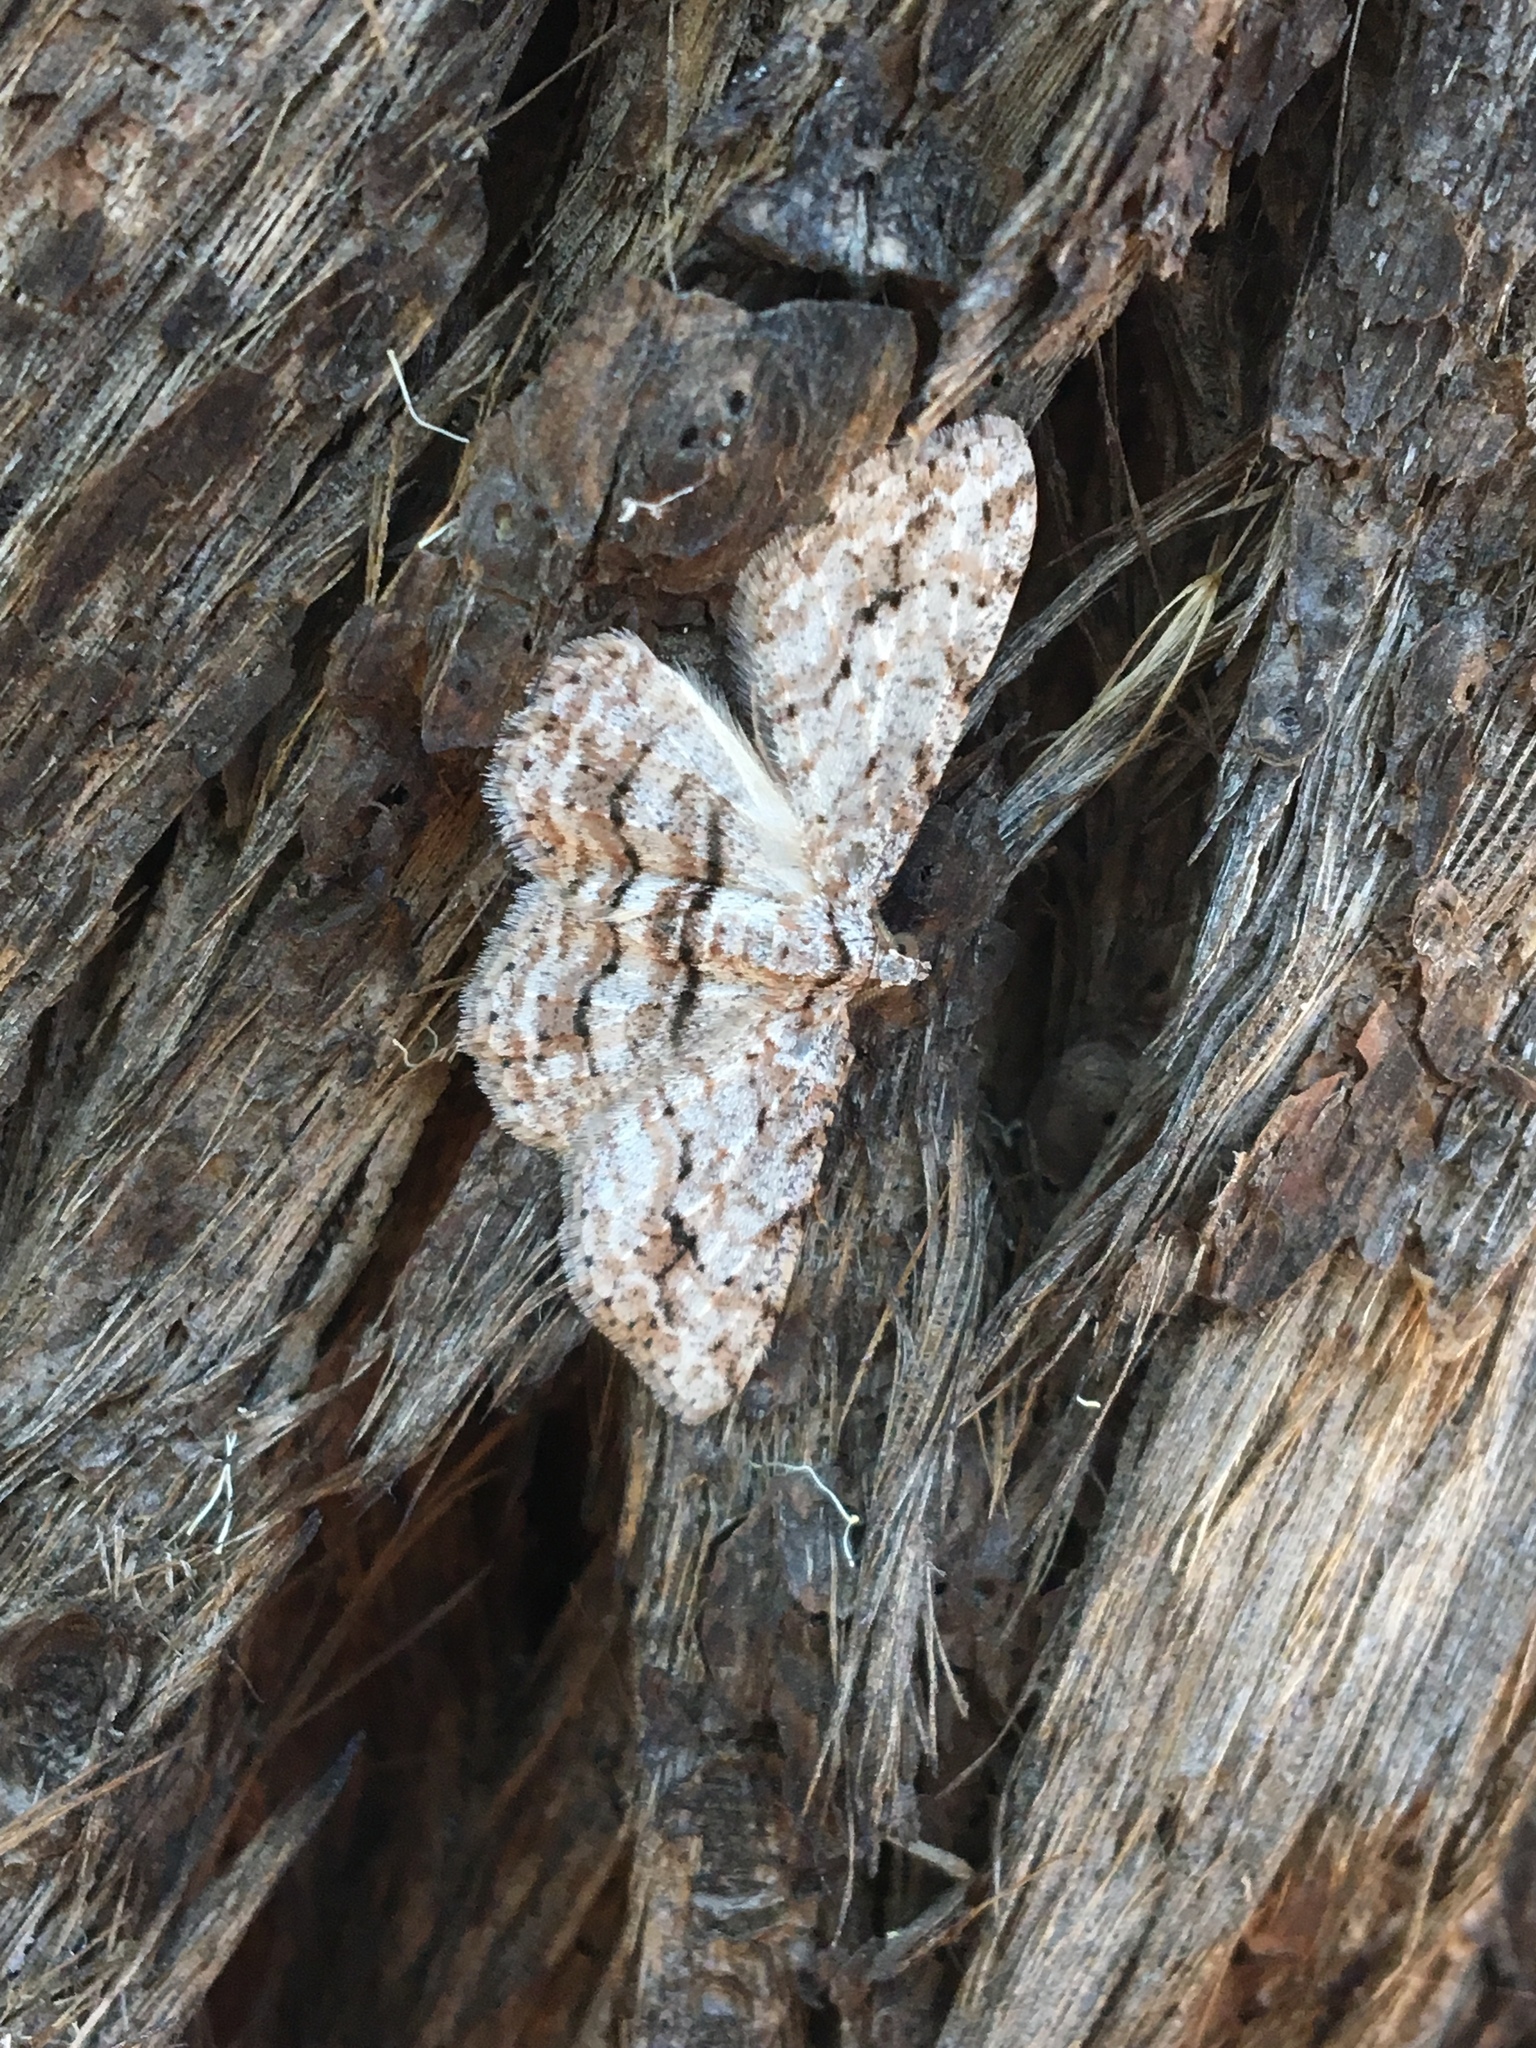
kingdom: Animalia
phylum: Arthropoda
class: Insecta
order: Lepidoptera
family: Geometridae
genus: Didymoctenia
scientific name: Didymoctenia exsuperata
